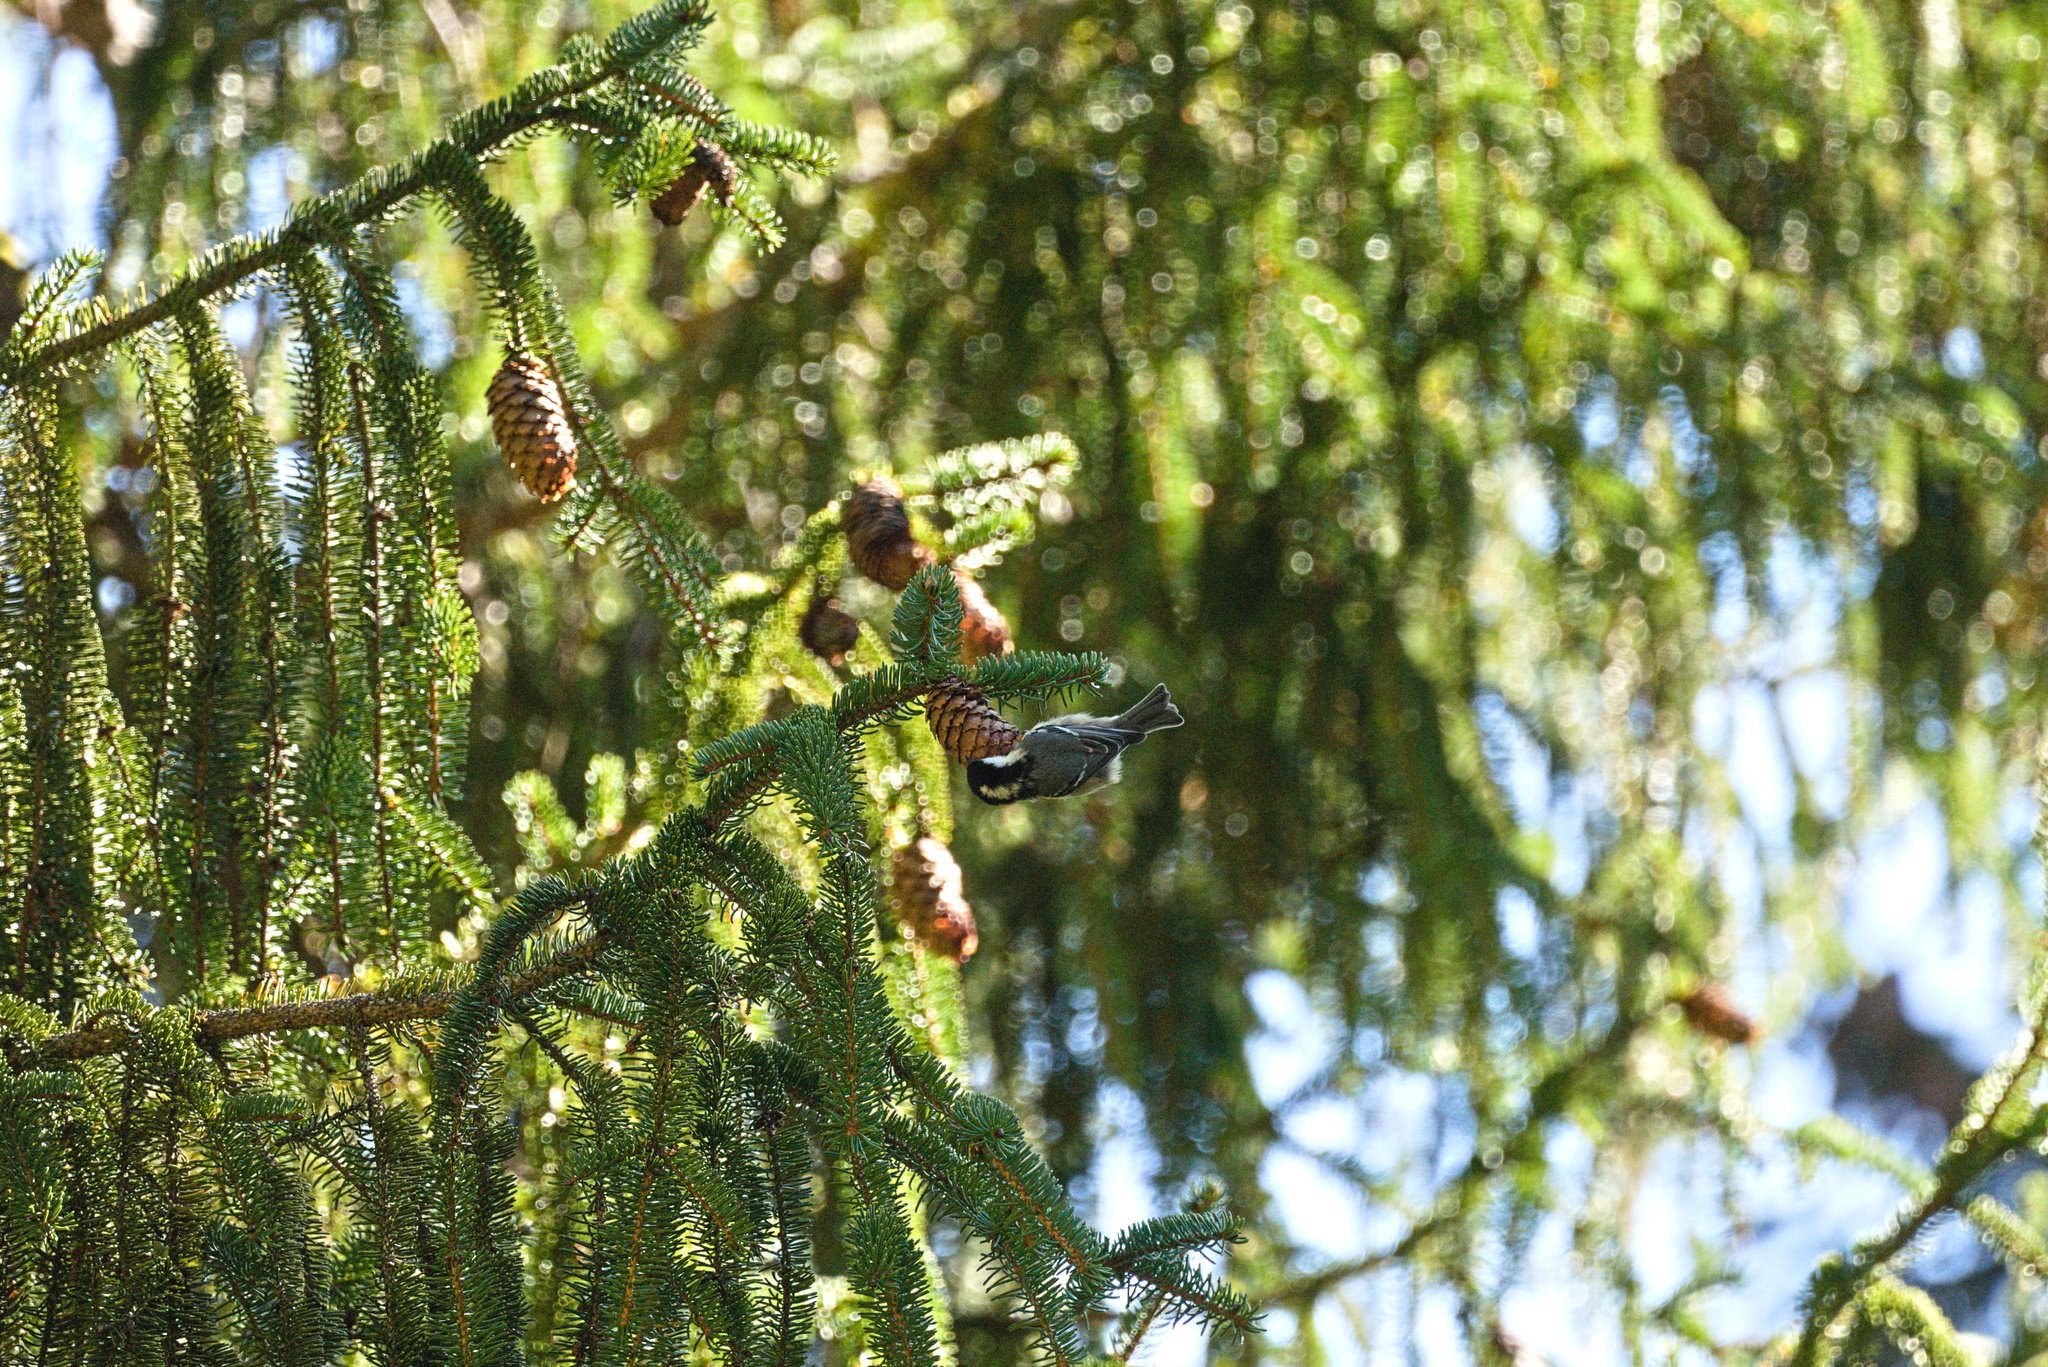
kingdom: Animalia
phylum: Chordata
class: Aves
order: Passeriformes
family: Paridae
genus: Periparus
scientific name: Periparus ater
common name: Coal tit
